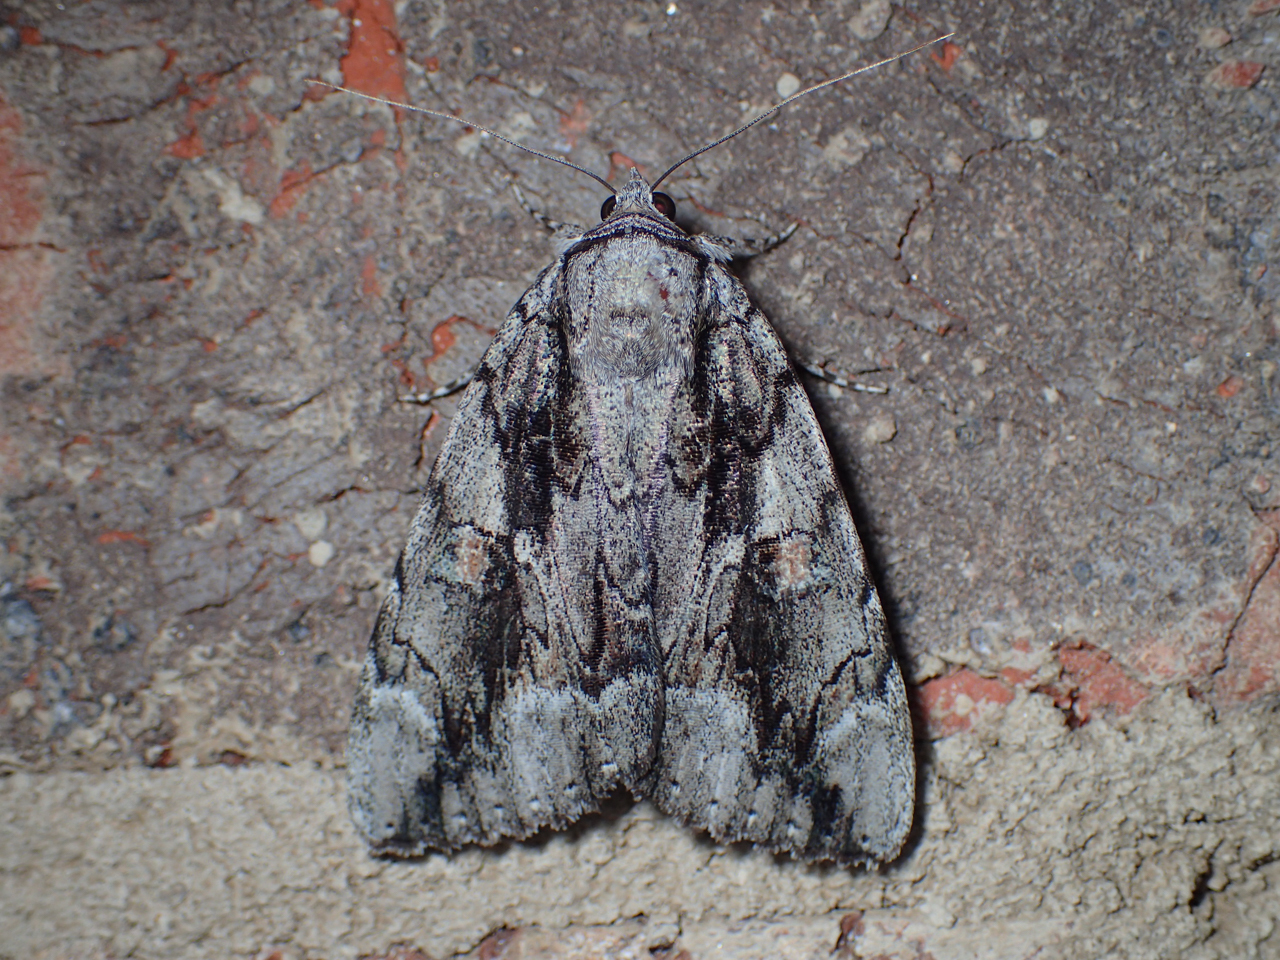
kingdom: Animalia
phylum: Arthropoda
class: Insecta
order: Lepidoptera
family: Erebidae
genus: Catocala
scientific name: Catocala flebilis
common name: Mournful underwing
